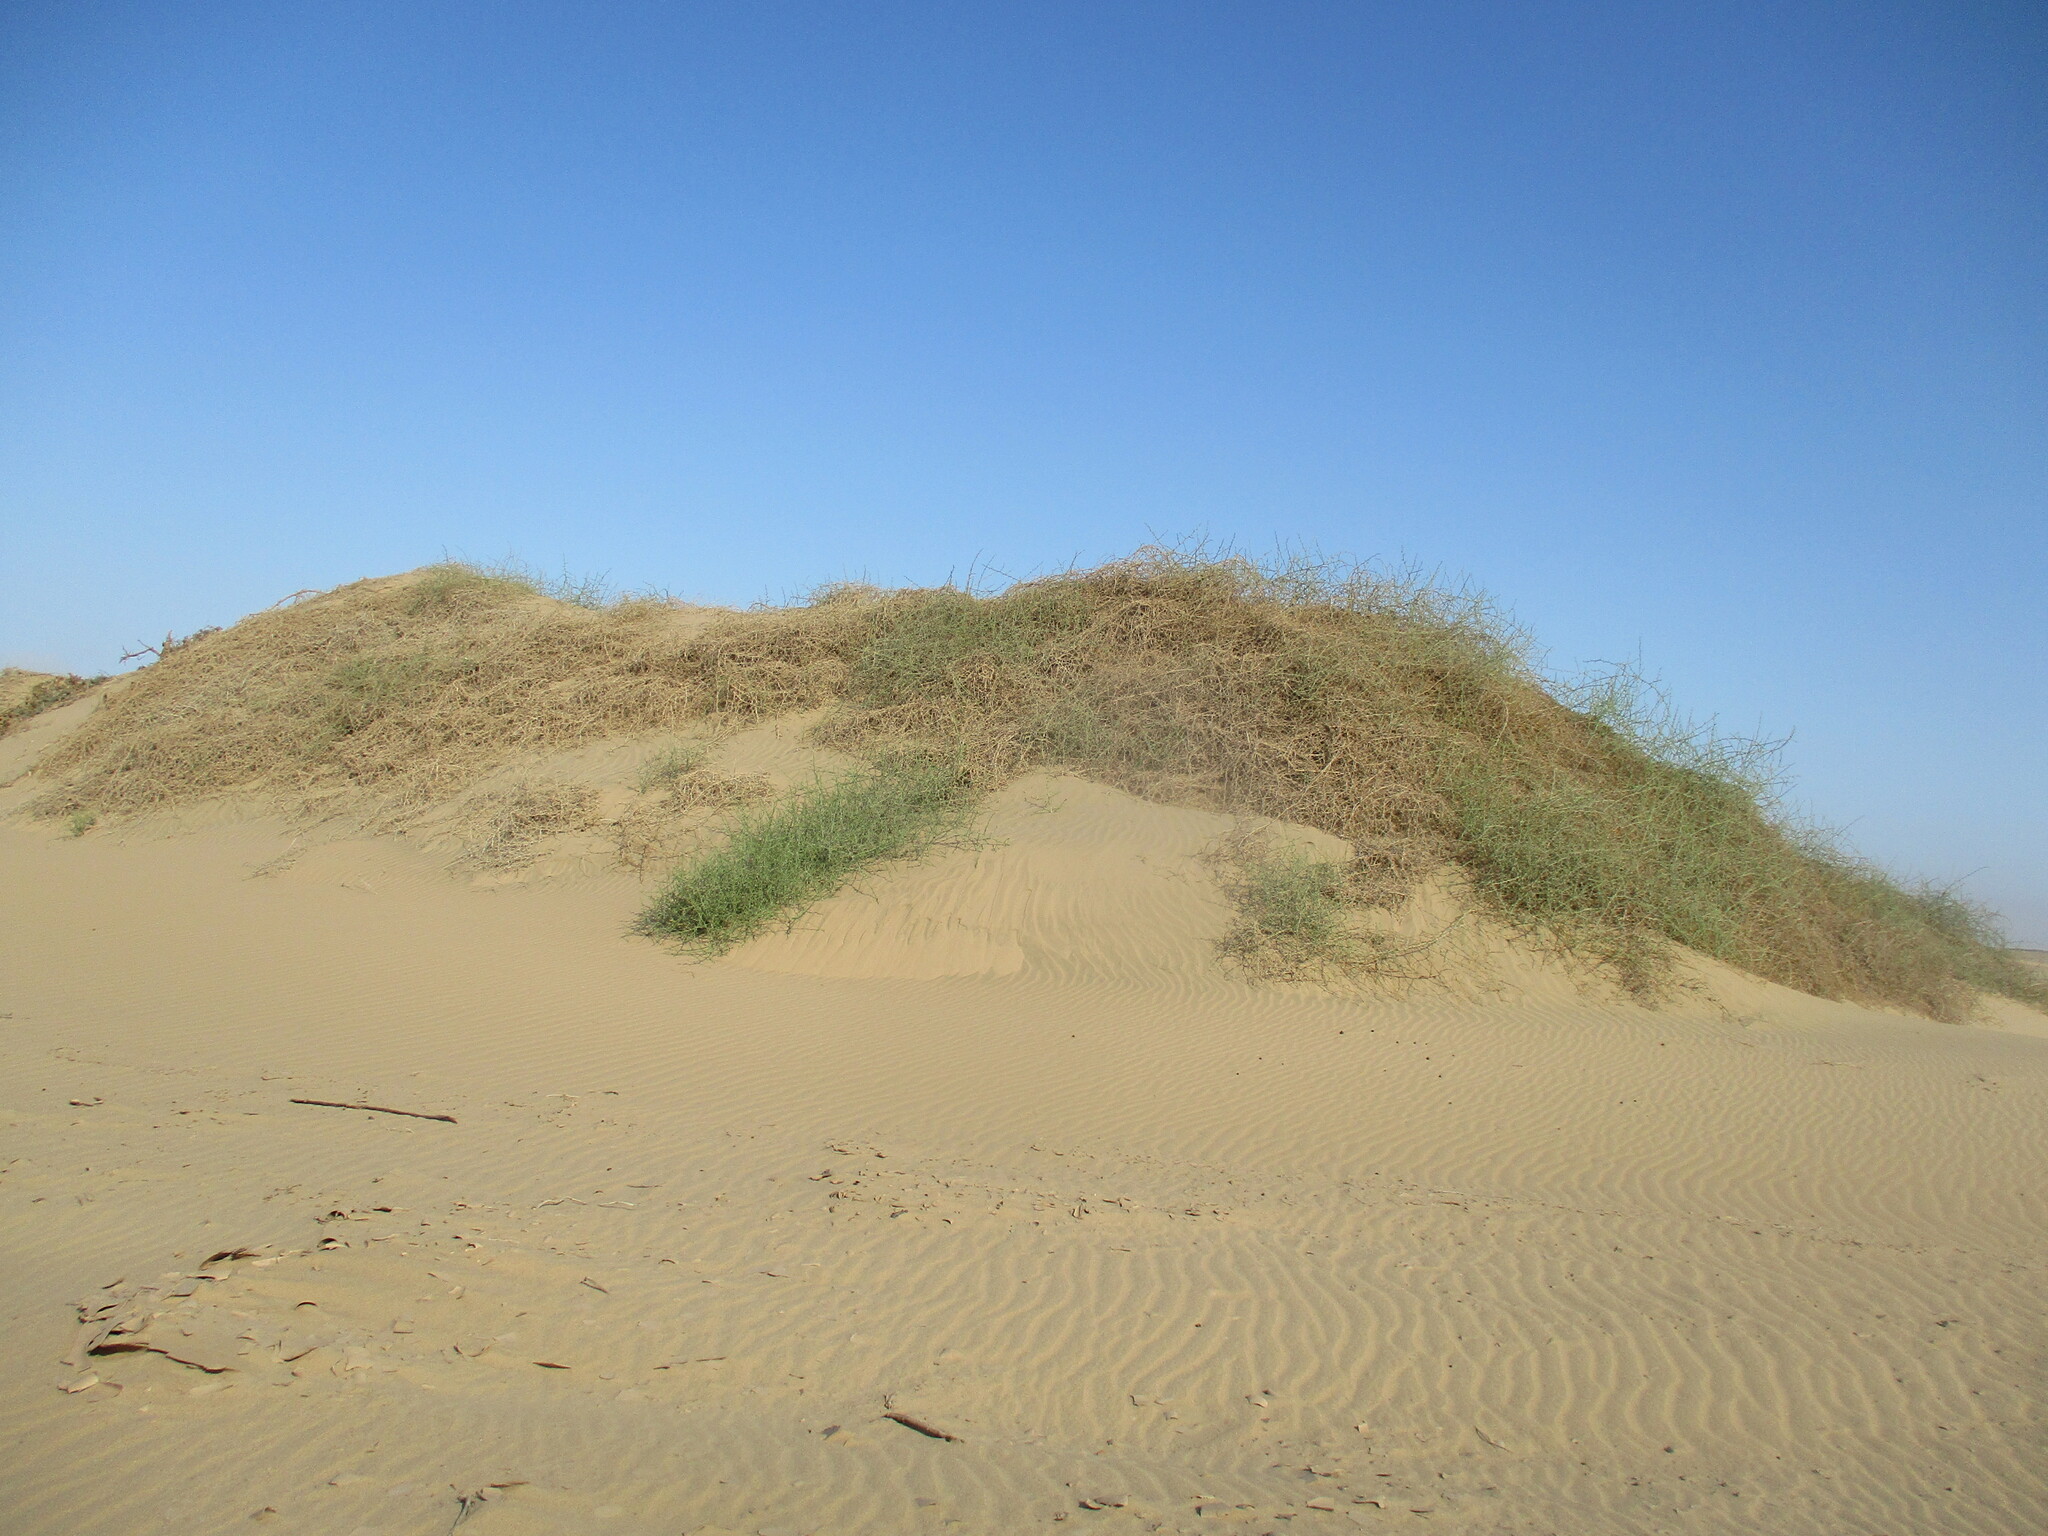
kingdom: Plantae
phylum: Tracheophyta
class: Magnoliopsida
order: Cucurbitales
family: Cucurbitaceae
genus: Acanthosicyos
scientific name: Acanthosicyos horridus
